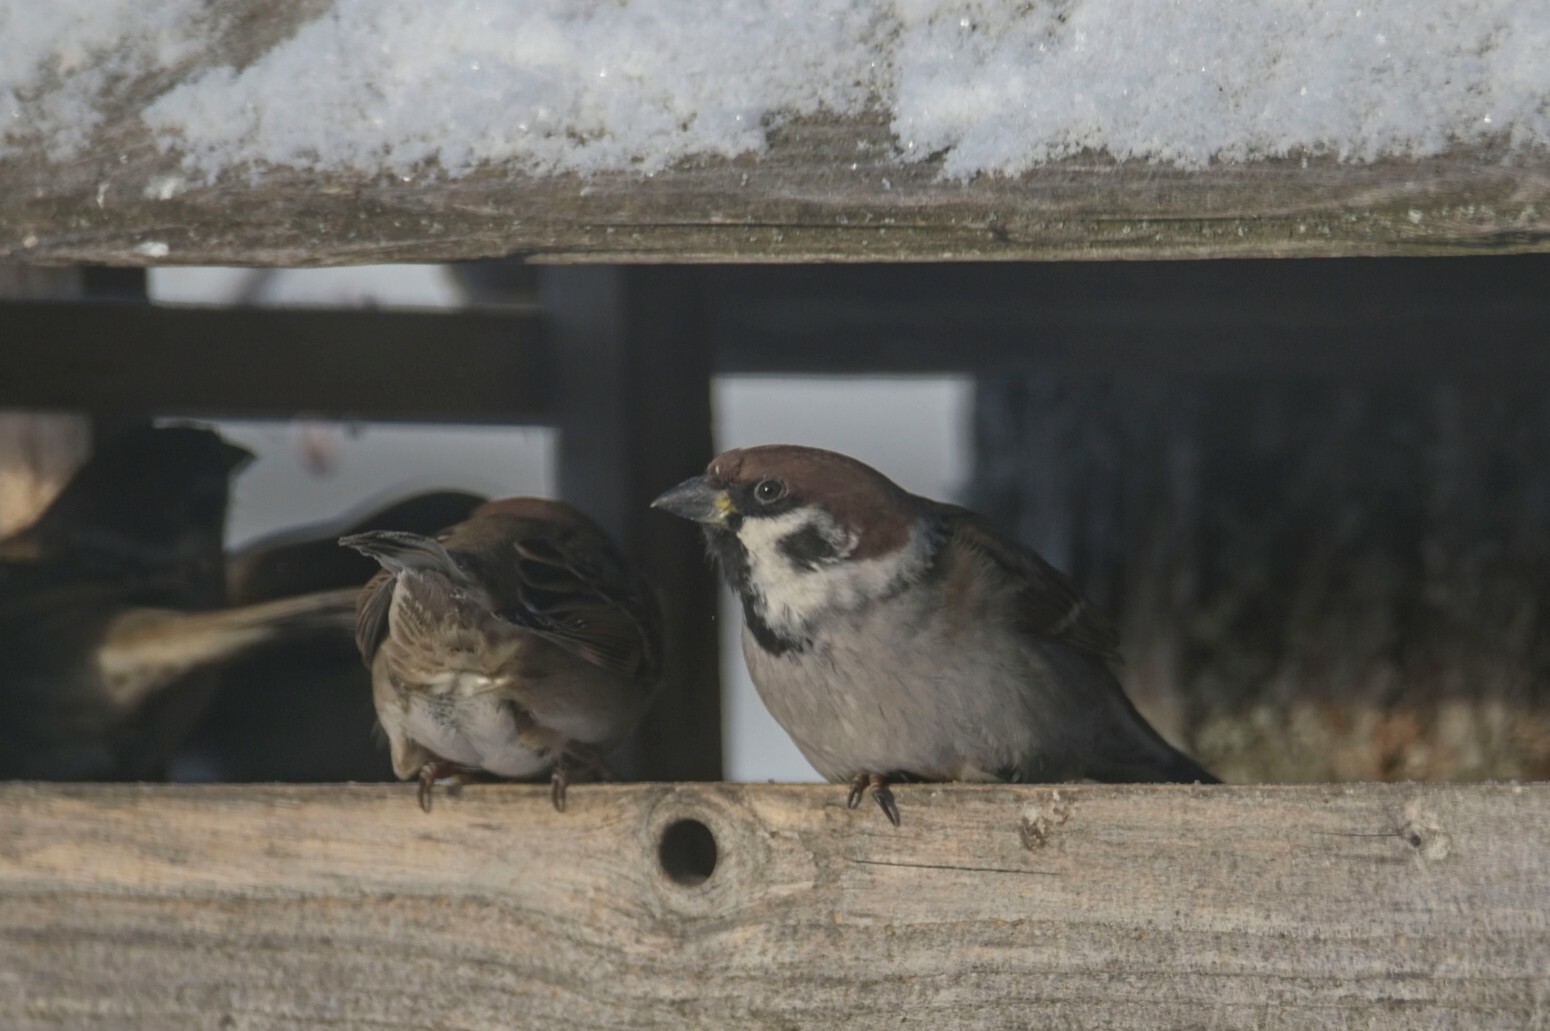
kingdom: Animalia
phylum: Chordata
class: Aves
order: Passeriformes
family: Passeridae
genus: Passer
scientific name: Passer domesticus
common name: House sparrow
